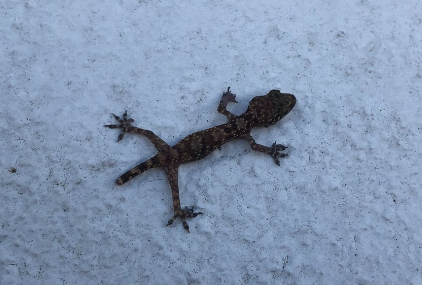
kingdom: Animalia
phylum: Chordata
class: Squamata
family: Gekkonidae
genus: Hemidactylus
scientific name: Hemidactylus turcicus
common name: Turkish gecko
